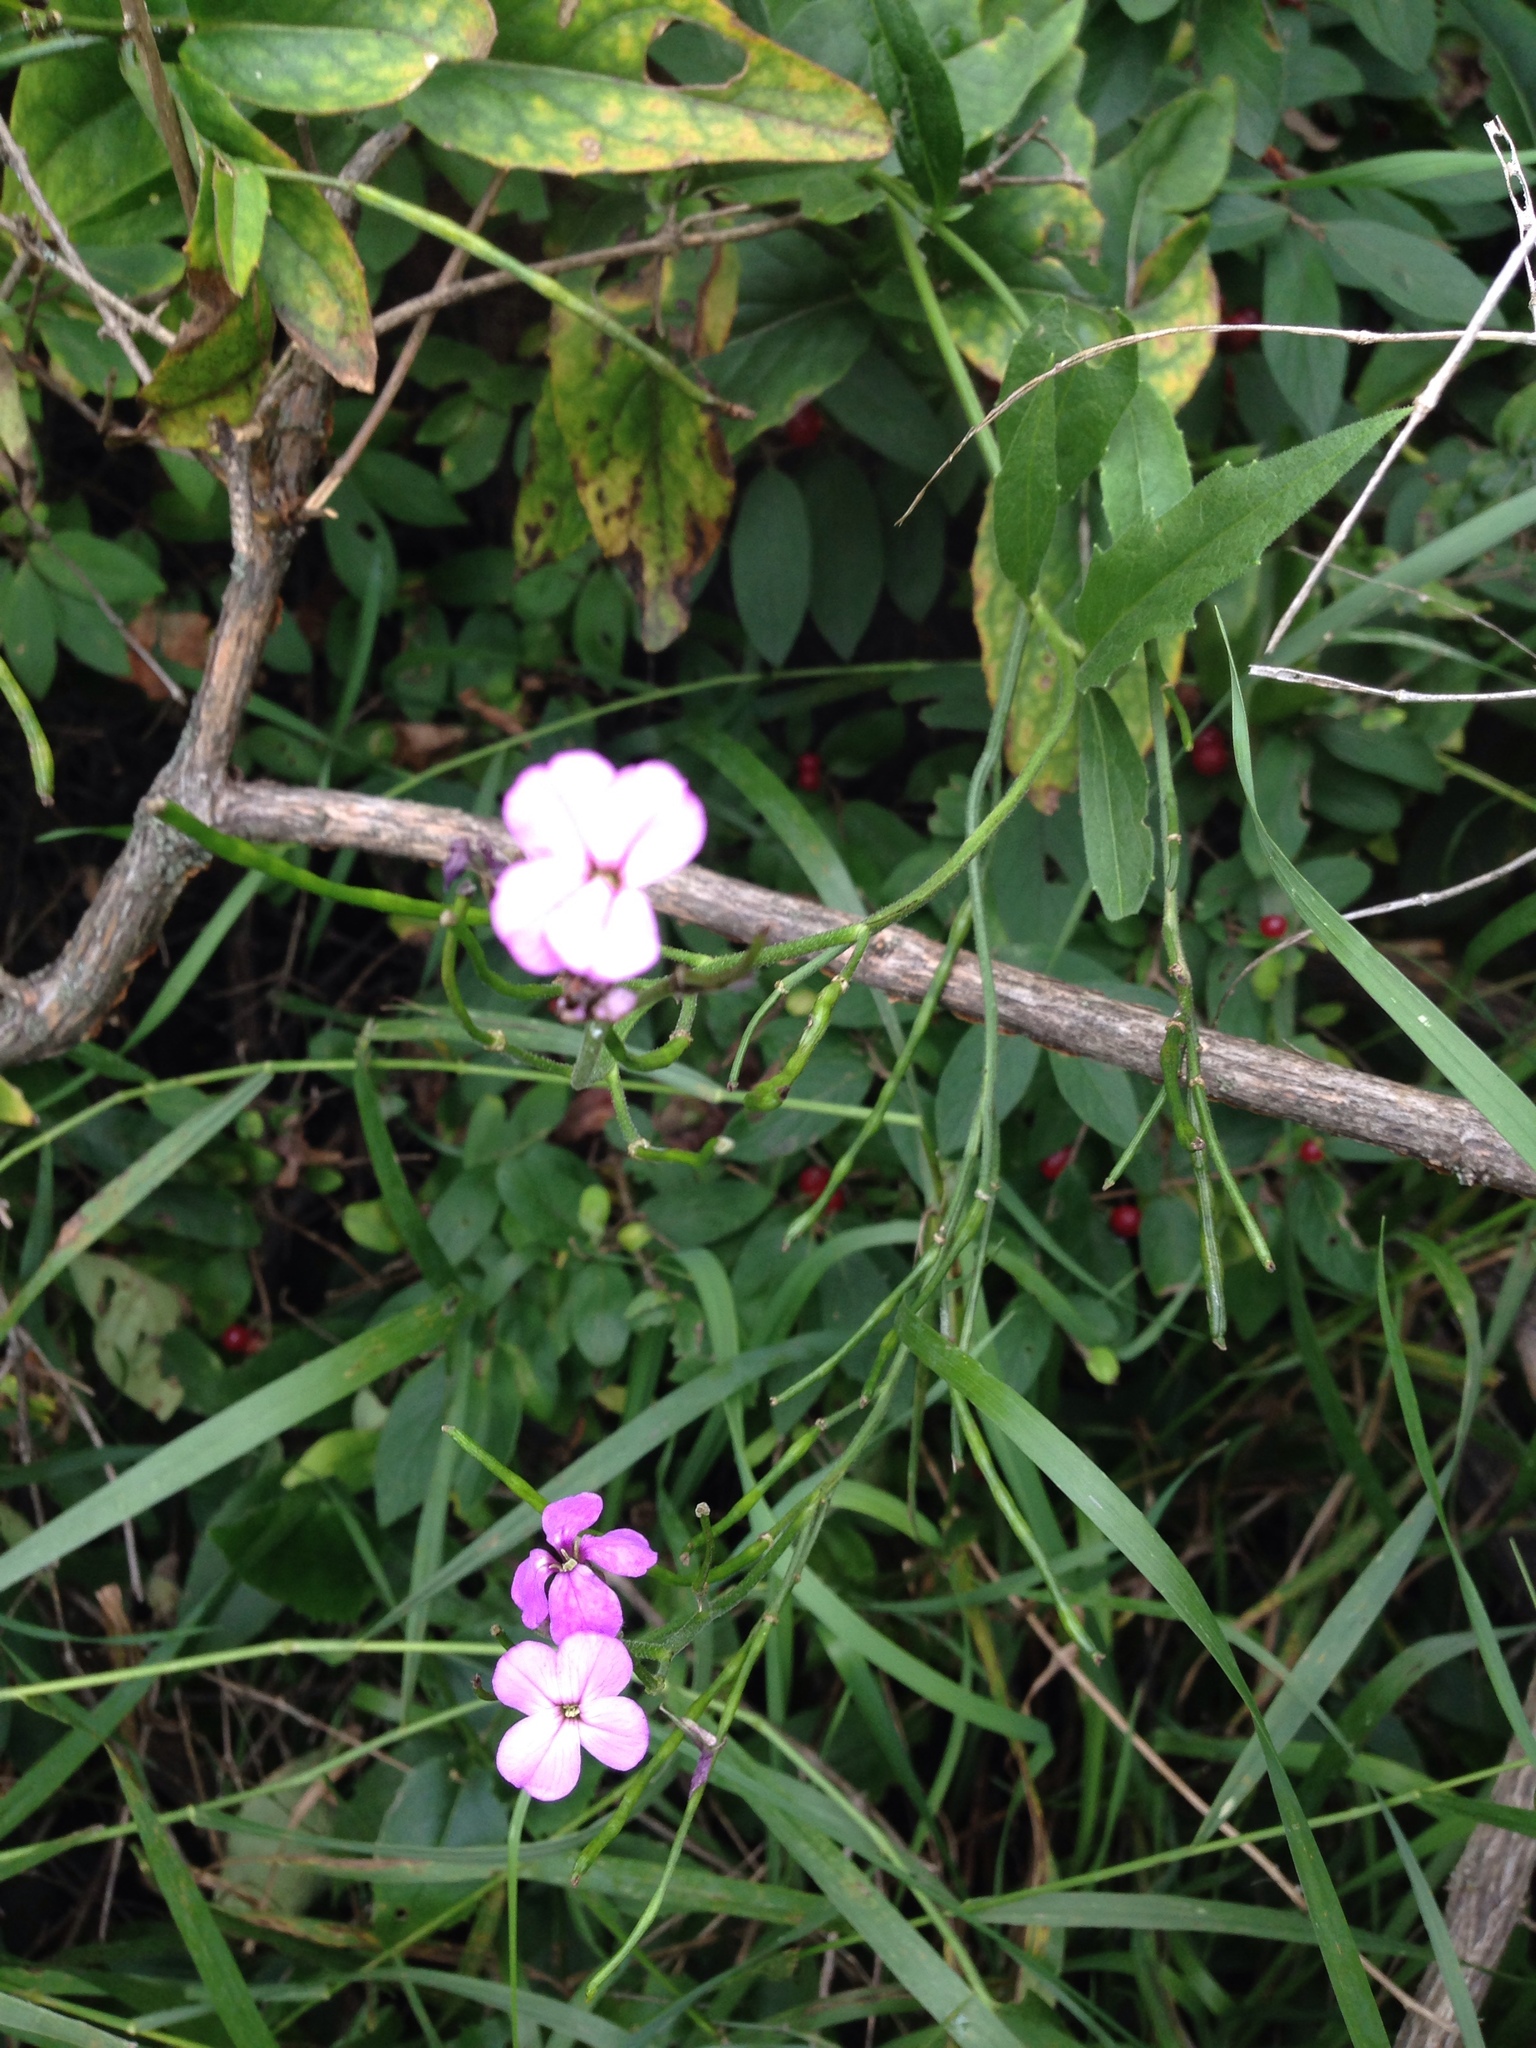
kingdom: Plantae
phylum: Tracheophyta
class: Magnoliopsida
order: Brassicales
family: Brassicaceae
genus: Hesperis
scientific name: Hesperis matronalis
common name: Dame's-violet
